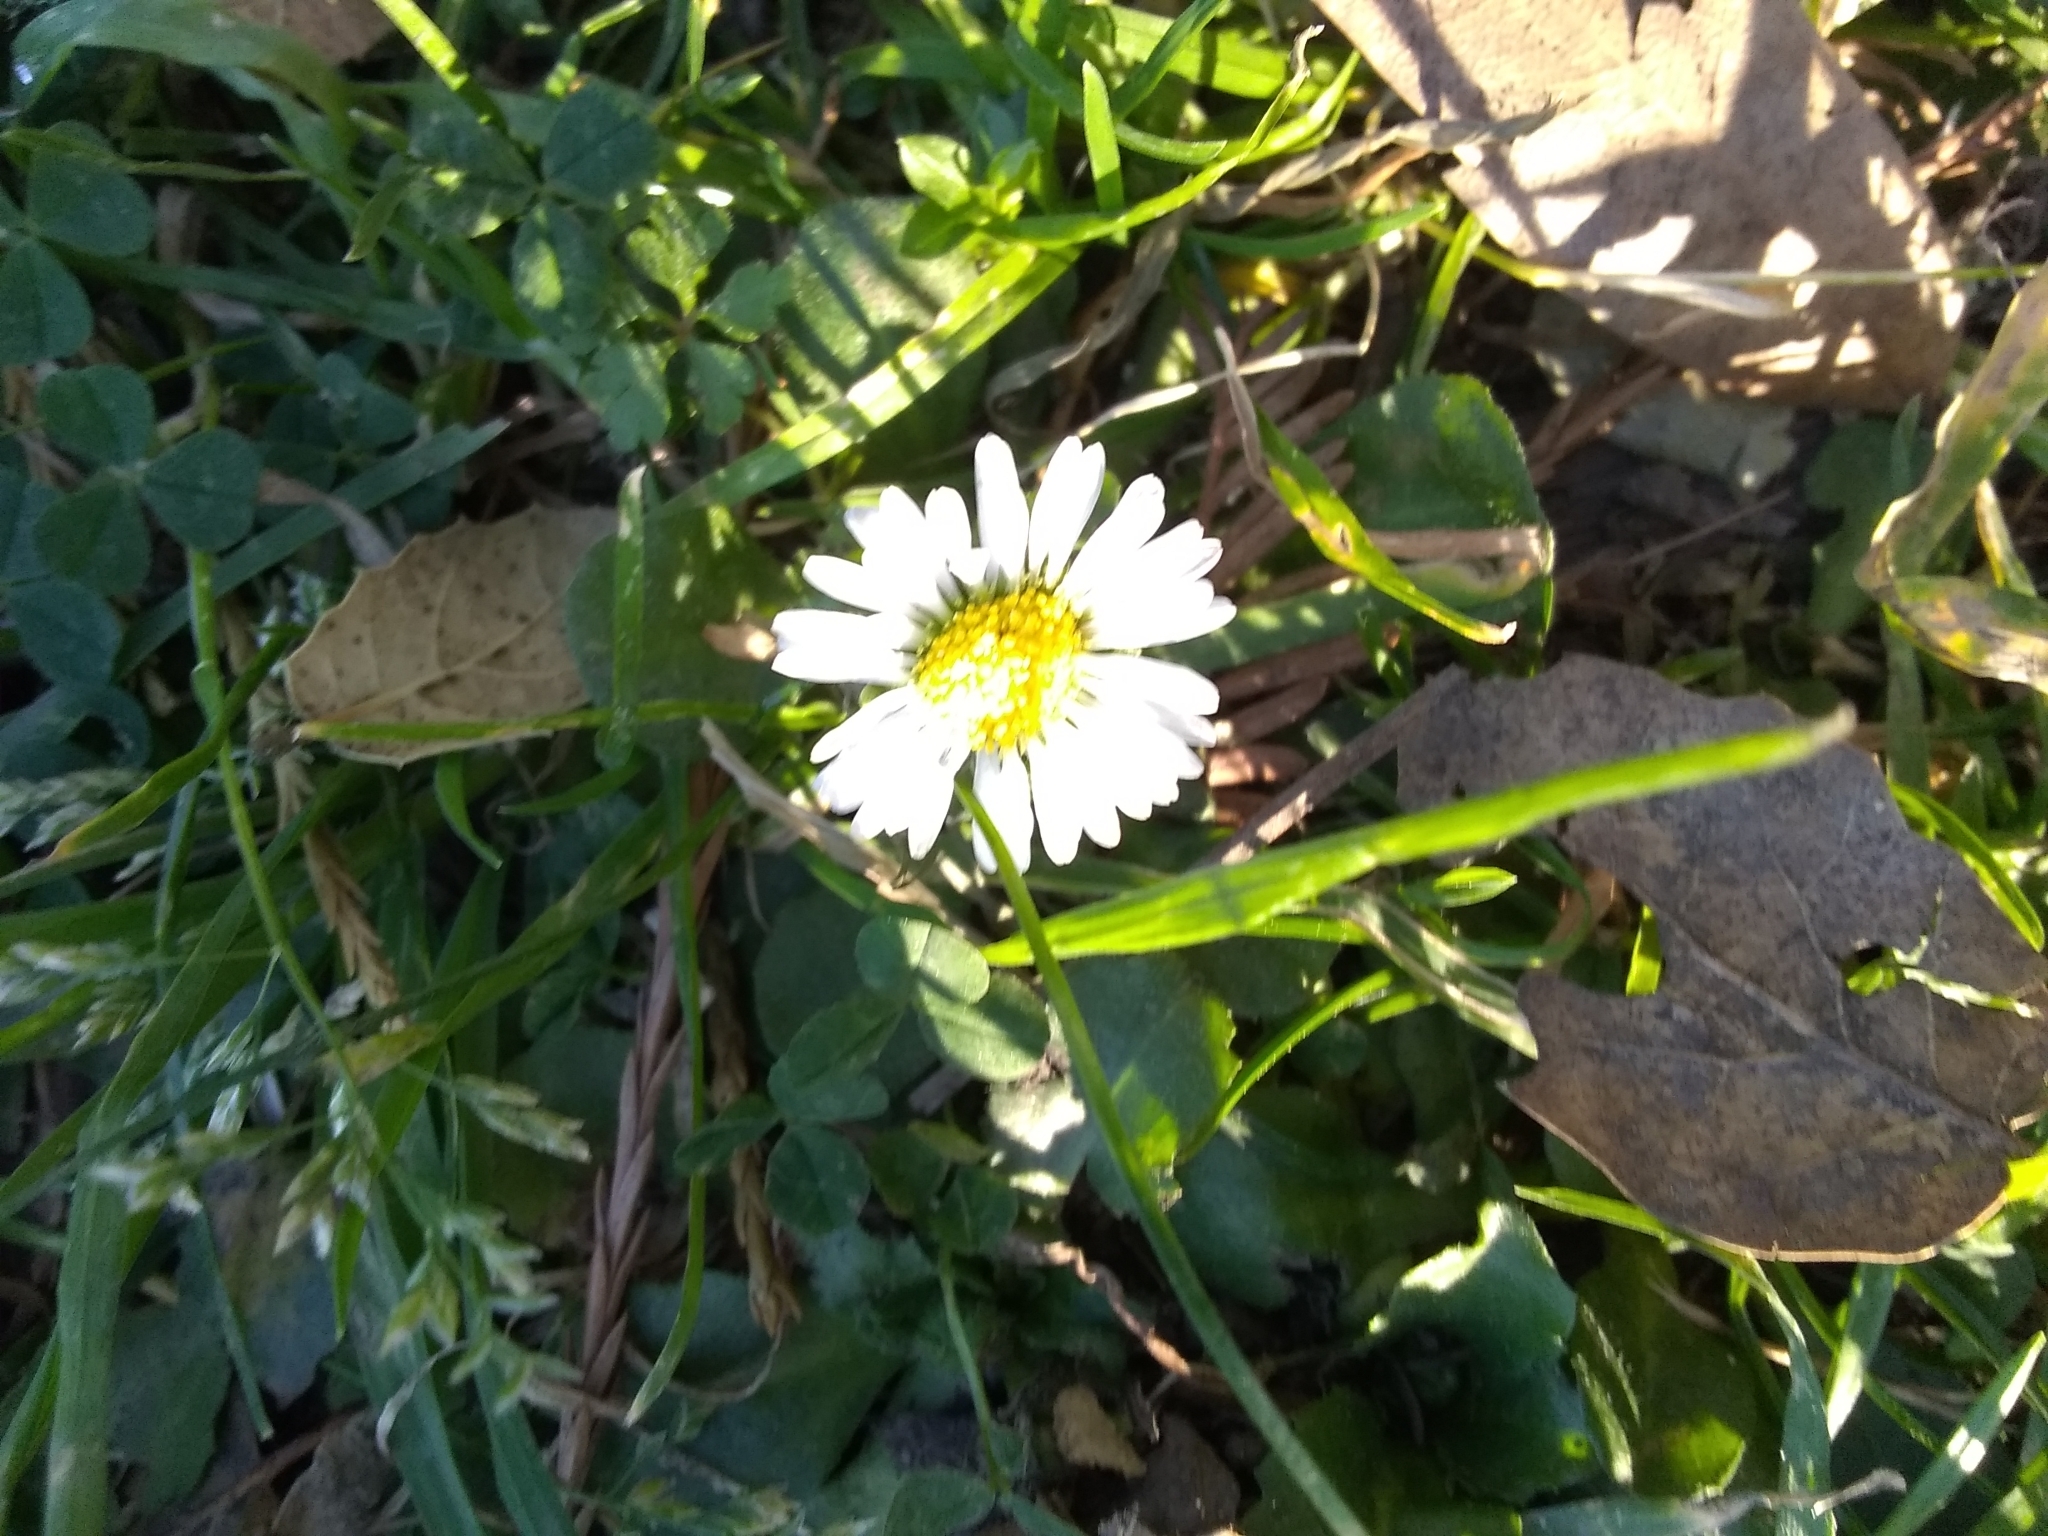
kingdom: Plantae
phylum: Tracheophyta
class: Magnoliopsida
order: Asterales
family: Asteraceae
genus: Bellis
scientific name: Bellis perennis
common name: Lawndaisy
